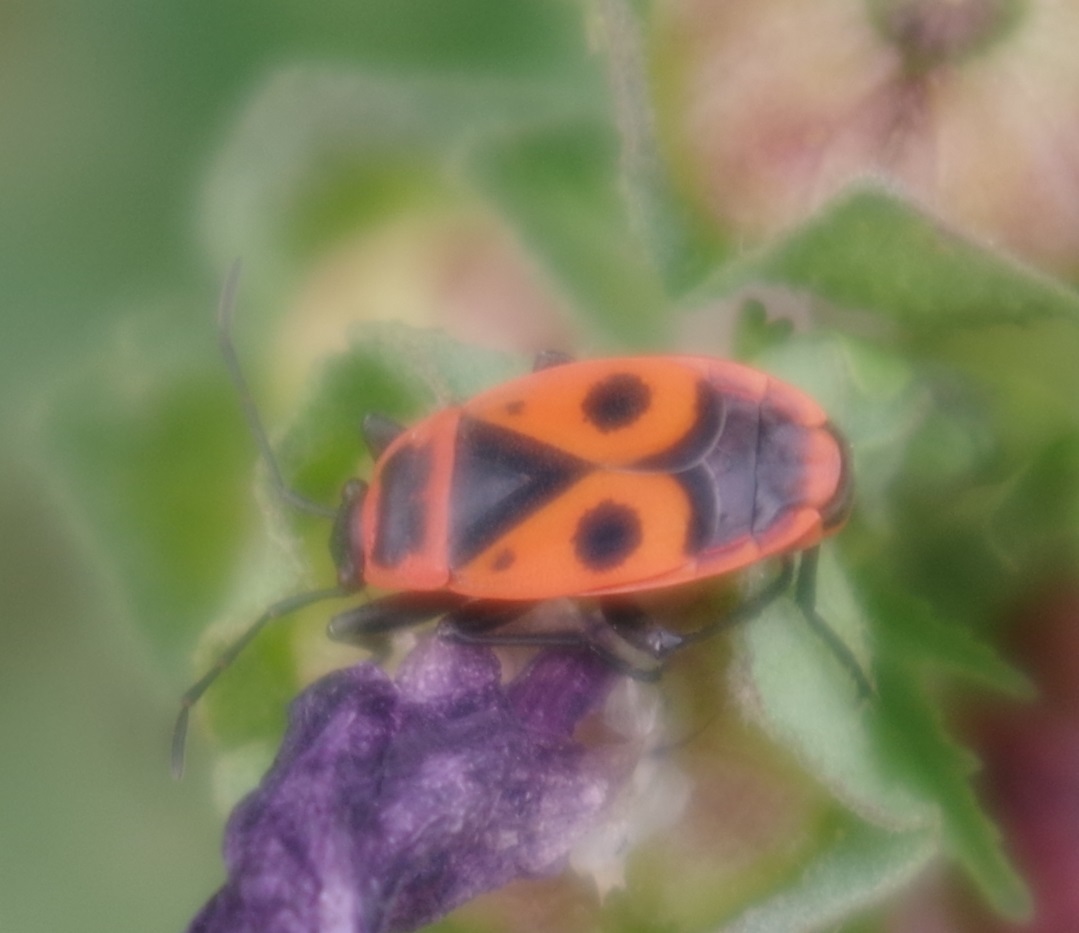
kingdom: Animalia
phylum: Arthropoda
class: Insecta
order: Hemiptera
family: Pyrrhocoridae
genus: Pyrrhocoris
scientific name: Pyrrhocoris apterus
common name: Firebug
